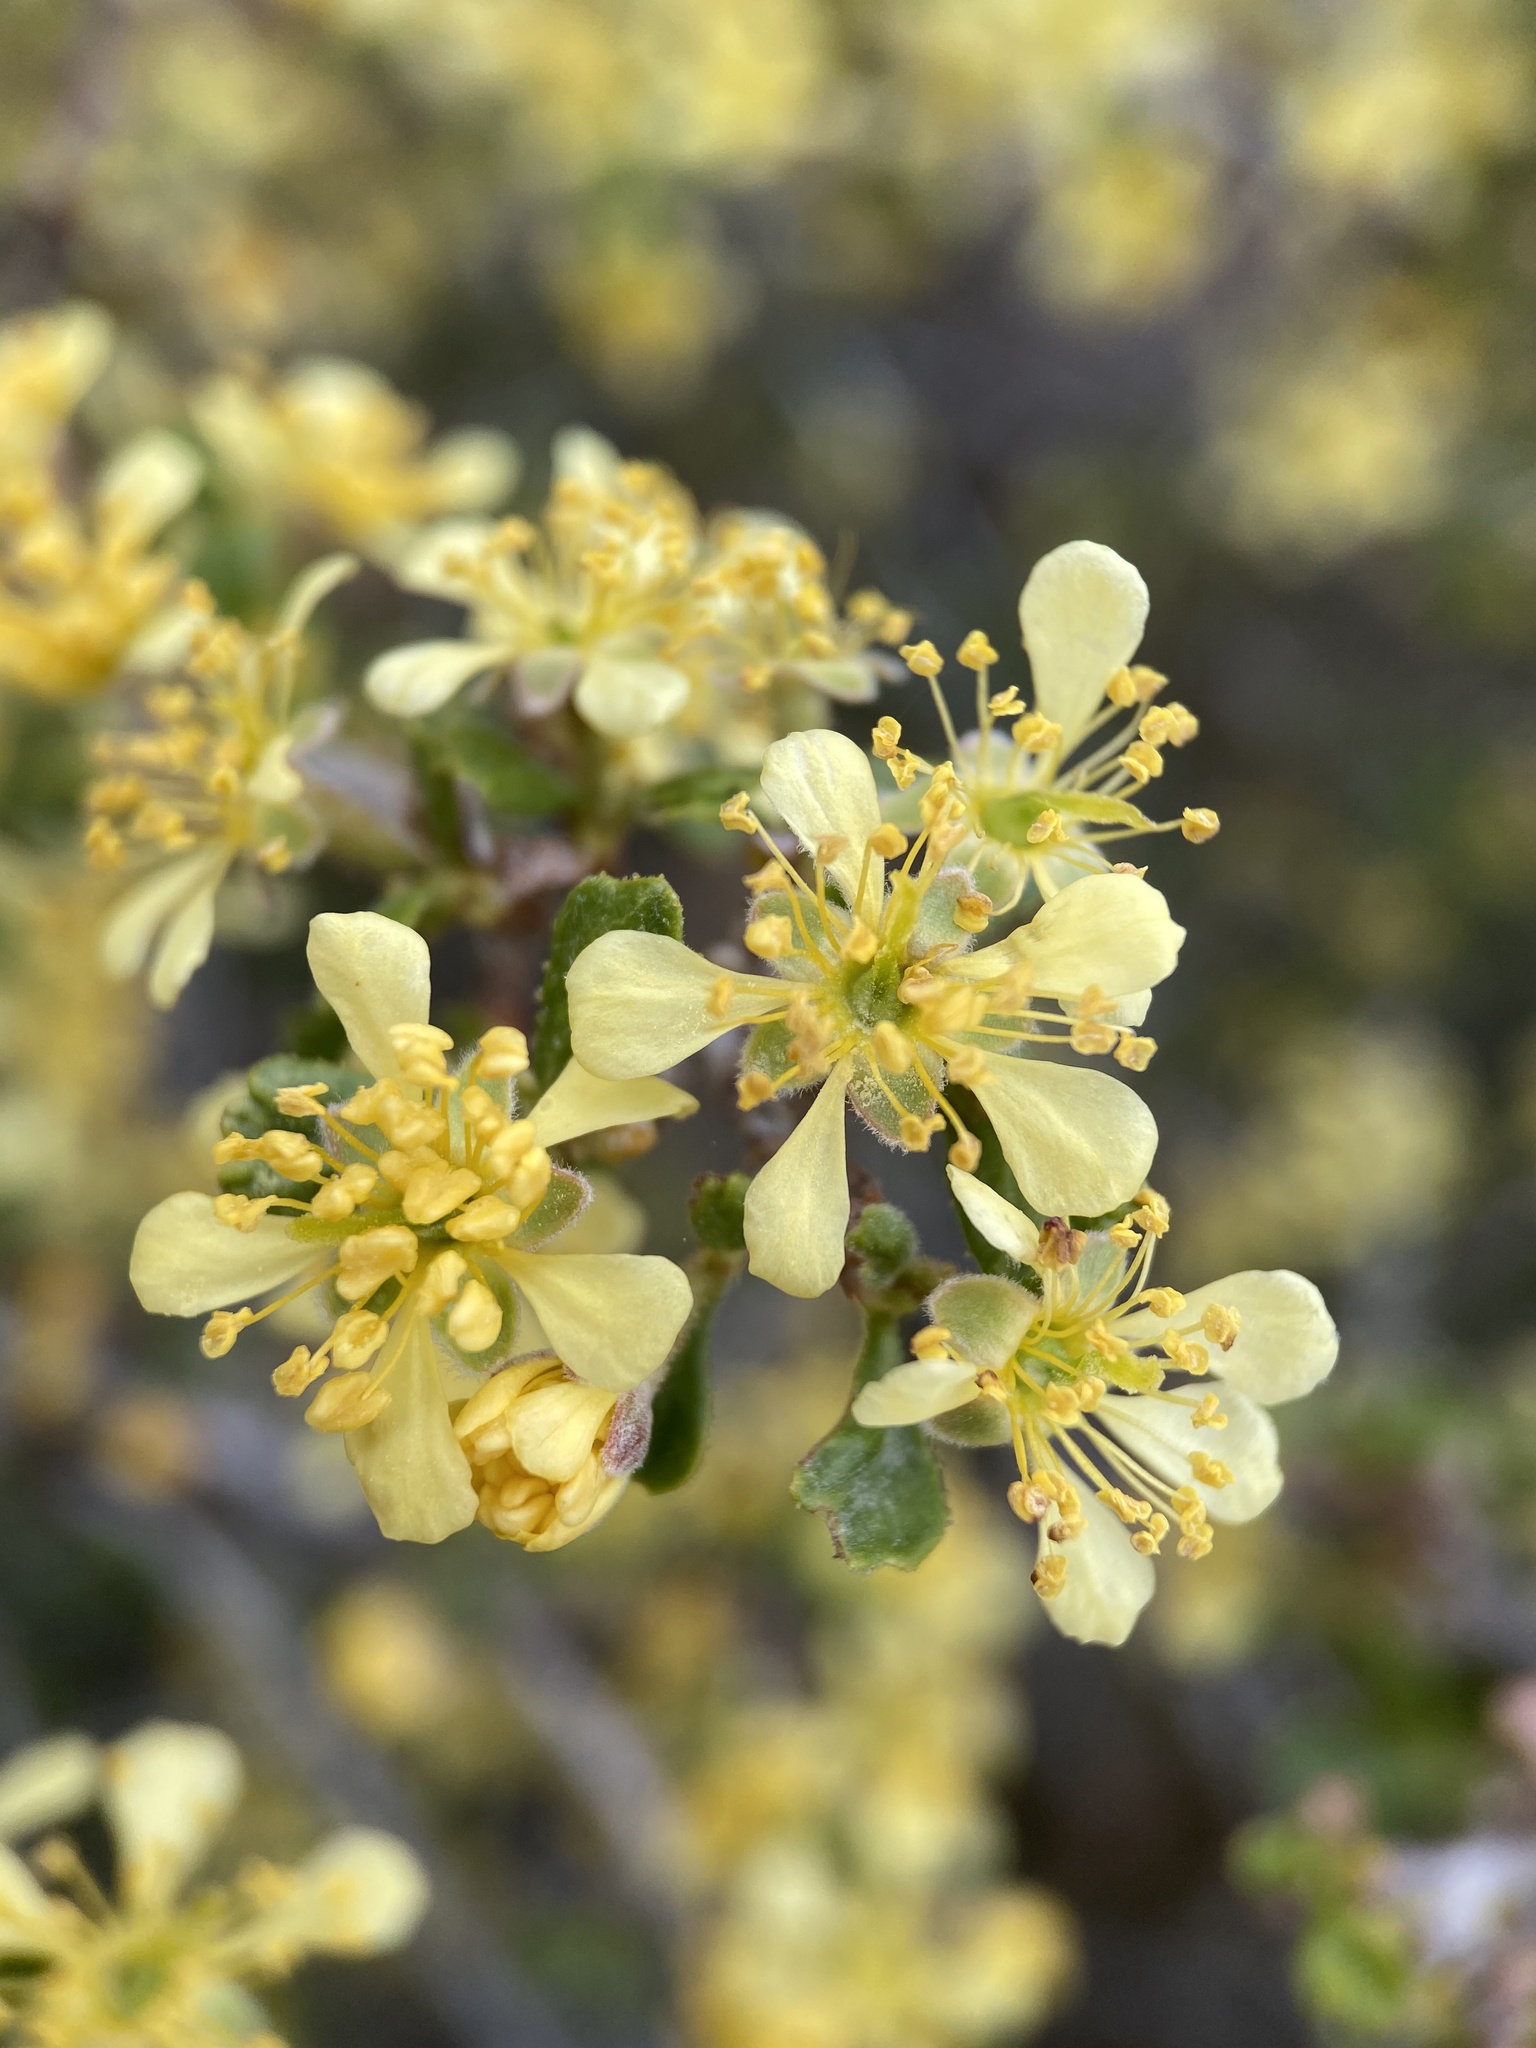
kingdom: Plantae
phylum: Tracheophyta
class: Magnoliopsida
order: Rosales
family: Rosaceae
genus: Purshia
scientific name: Purshia tridentata
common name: Antelope bitterbrush
